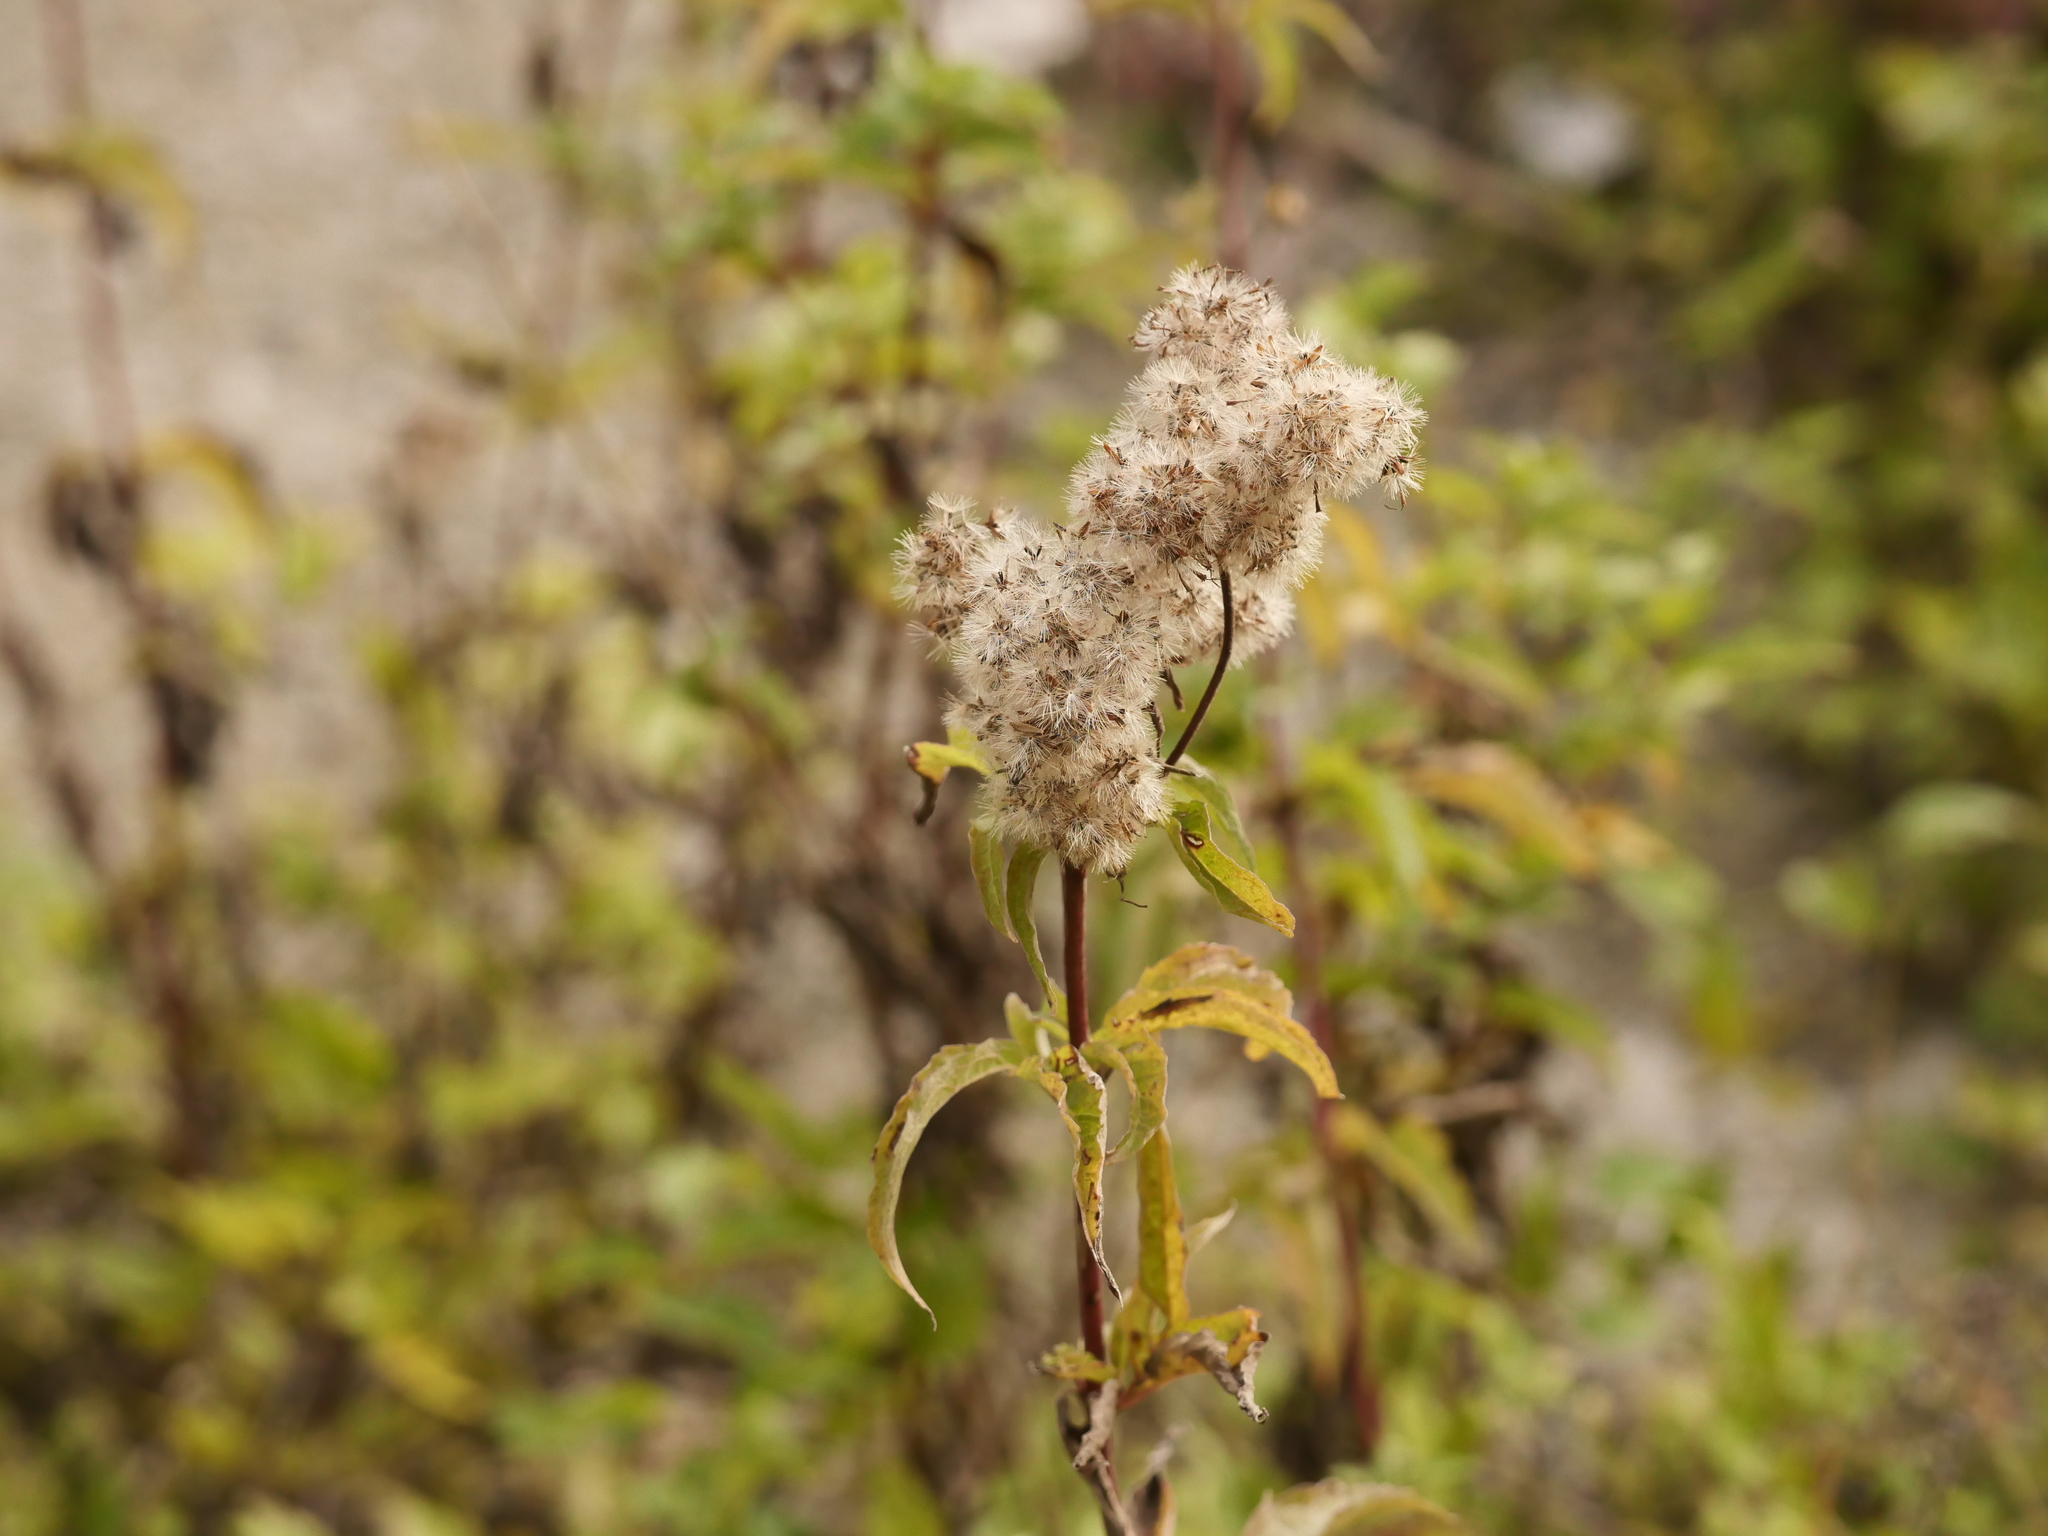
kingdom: Plantae
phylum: Tracheophyta
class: Magnoliopsida
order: Asterales
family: Asteraceae
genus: Eupatorium
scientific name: Eupatorium cannabinum
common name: Hemp-agrimony
